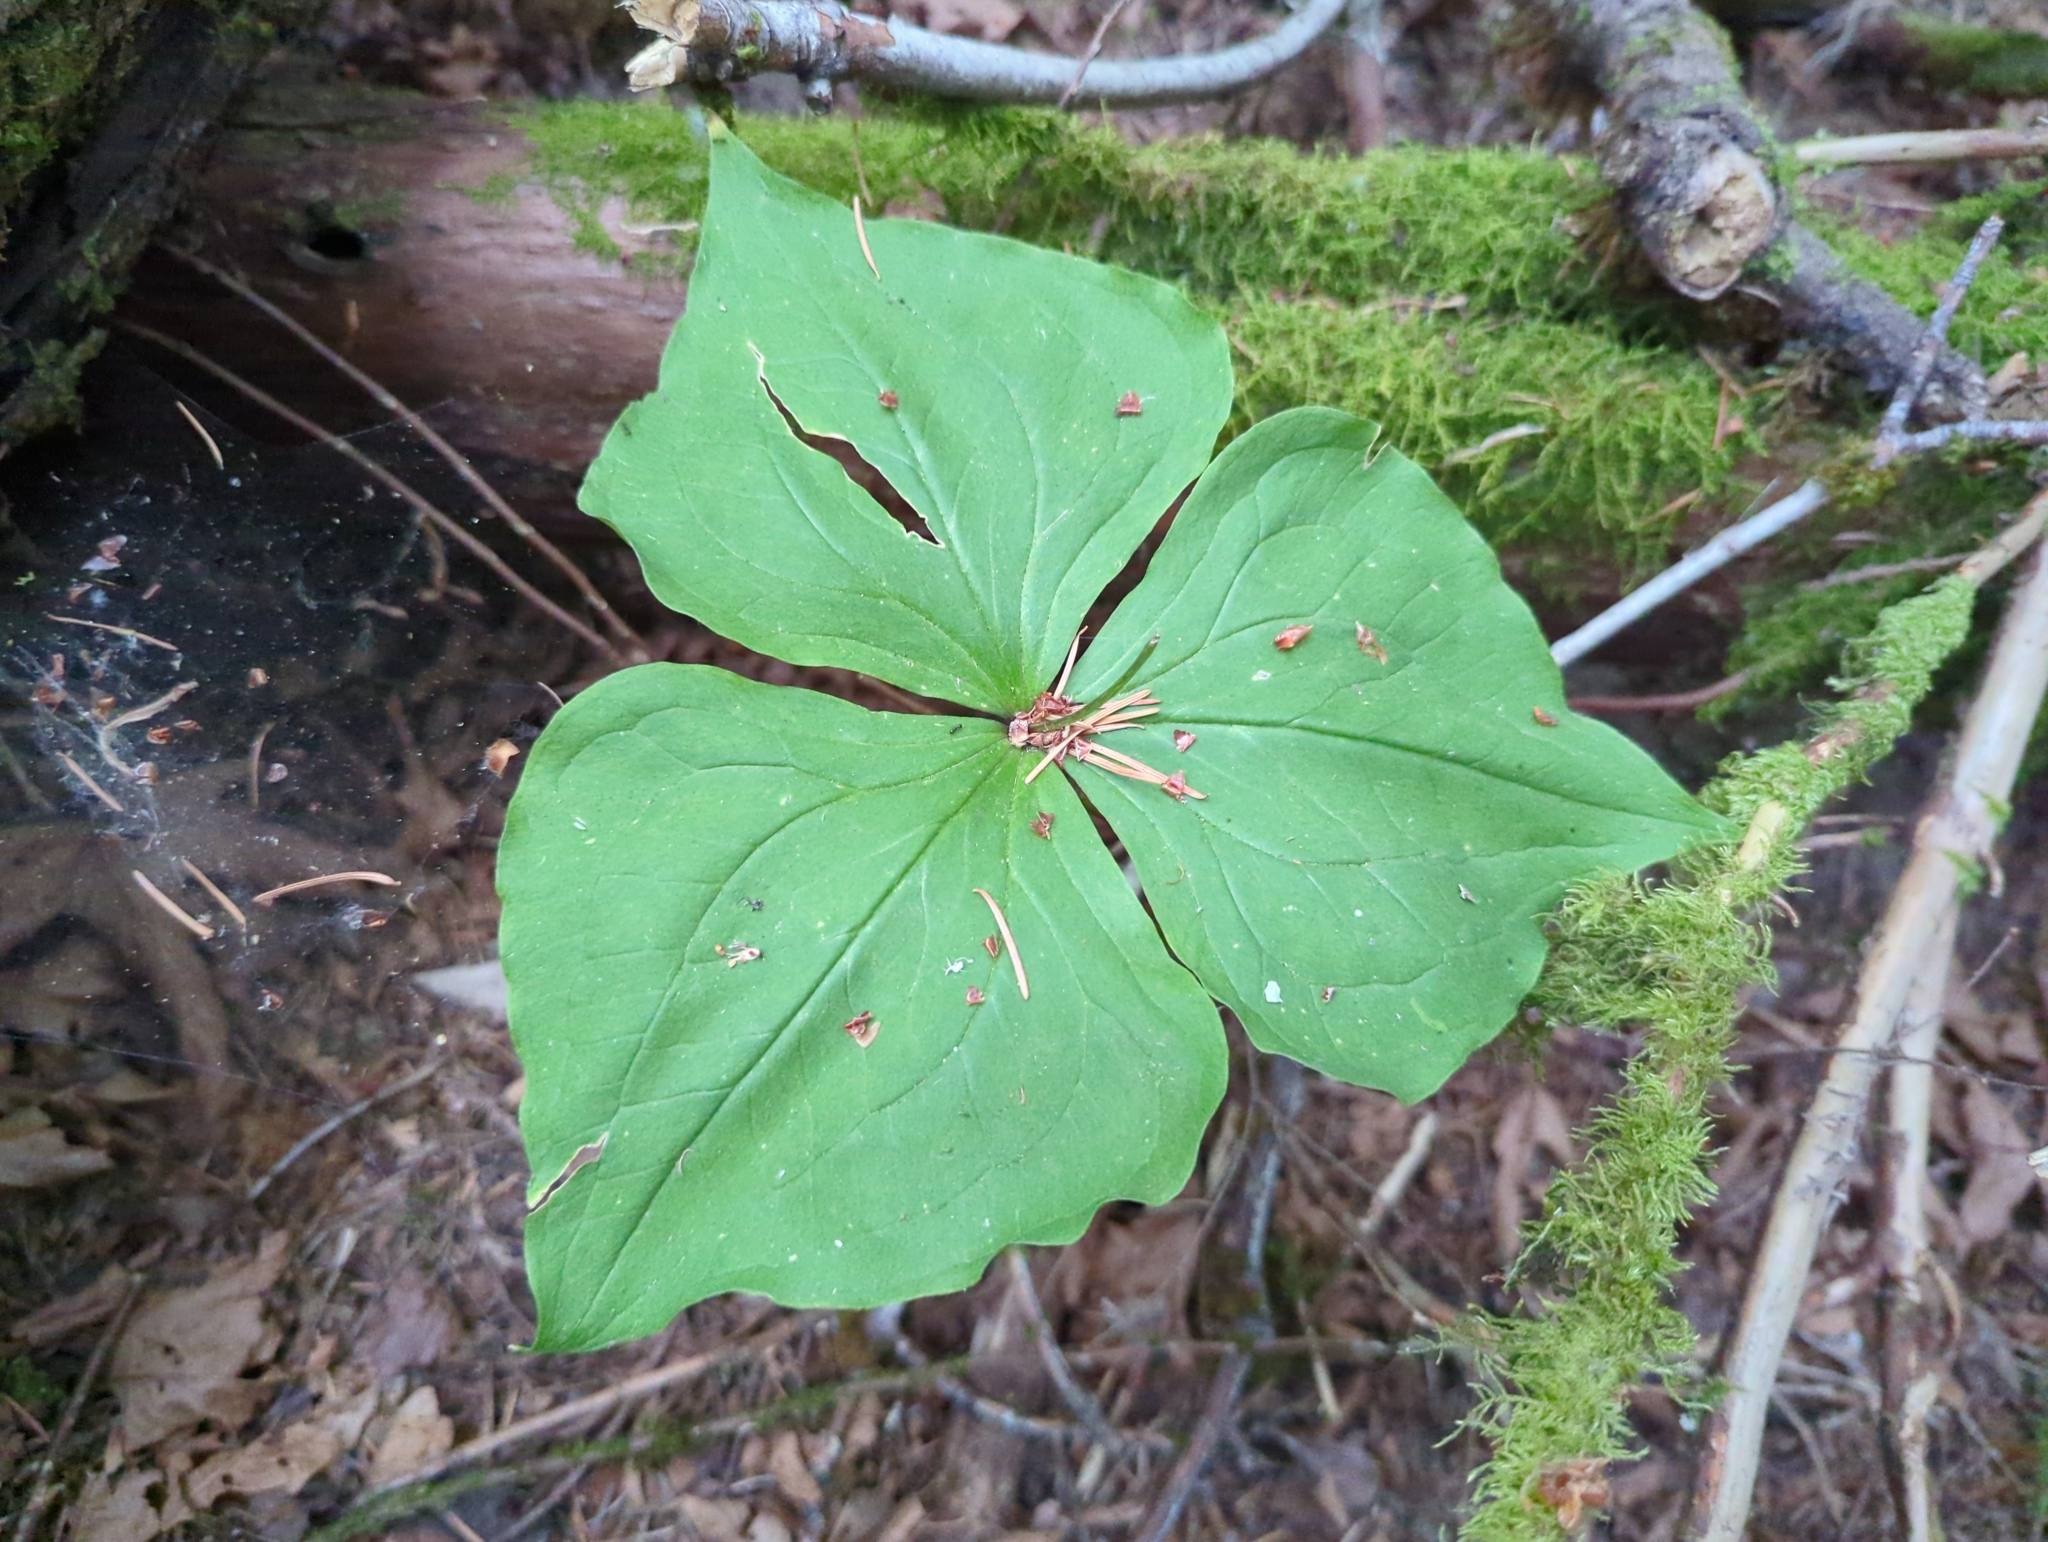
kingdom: Plantae
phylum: Tracheophyta
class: Liliopsida
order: Liliales
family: Melanthiaceae
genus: Trillium
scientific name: Trillium ovatum
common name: Pacific trillium
